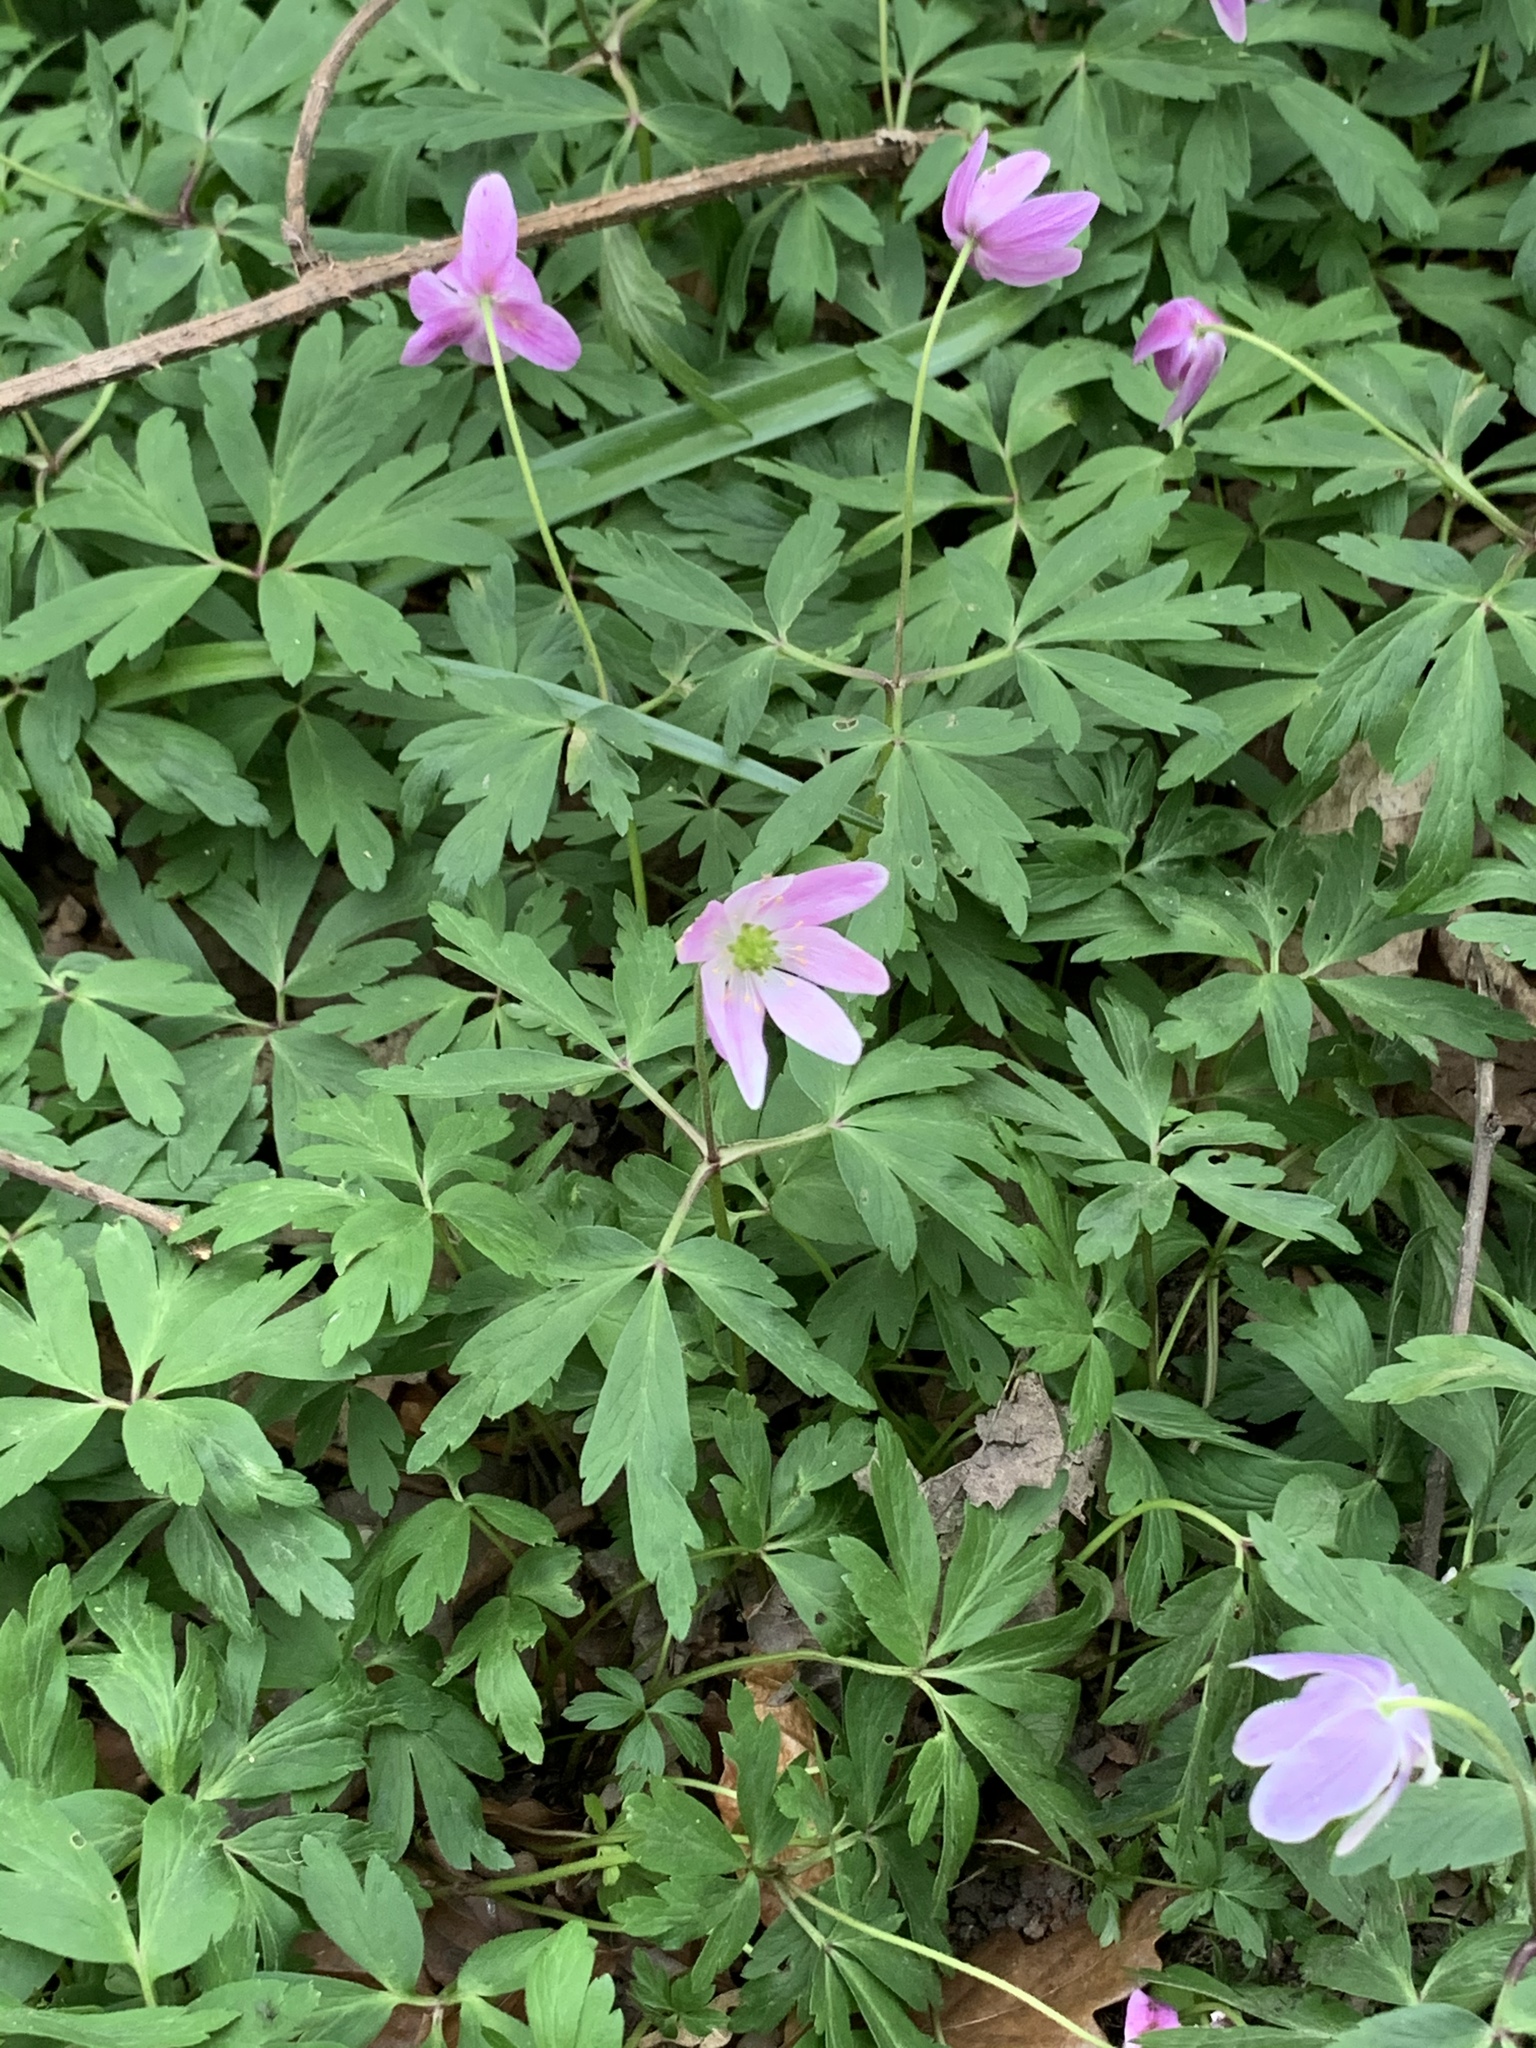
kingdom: Plantae
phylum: Tracheophyta
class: Magnoliopsida
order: Ranunculales
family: Ranunculaceae
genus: Anemone
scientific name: Anemone nemorosa
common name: Wood anemone
